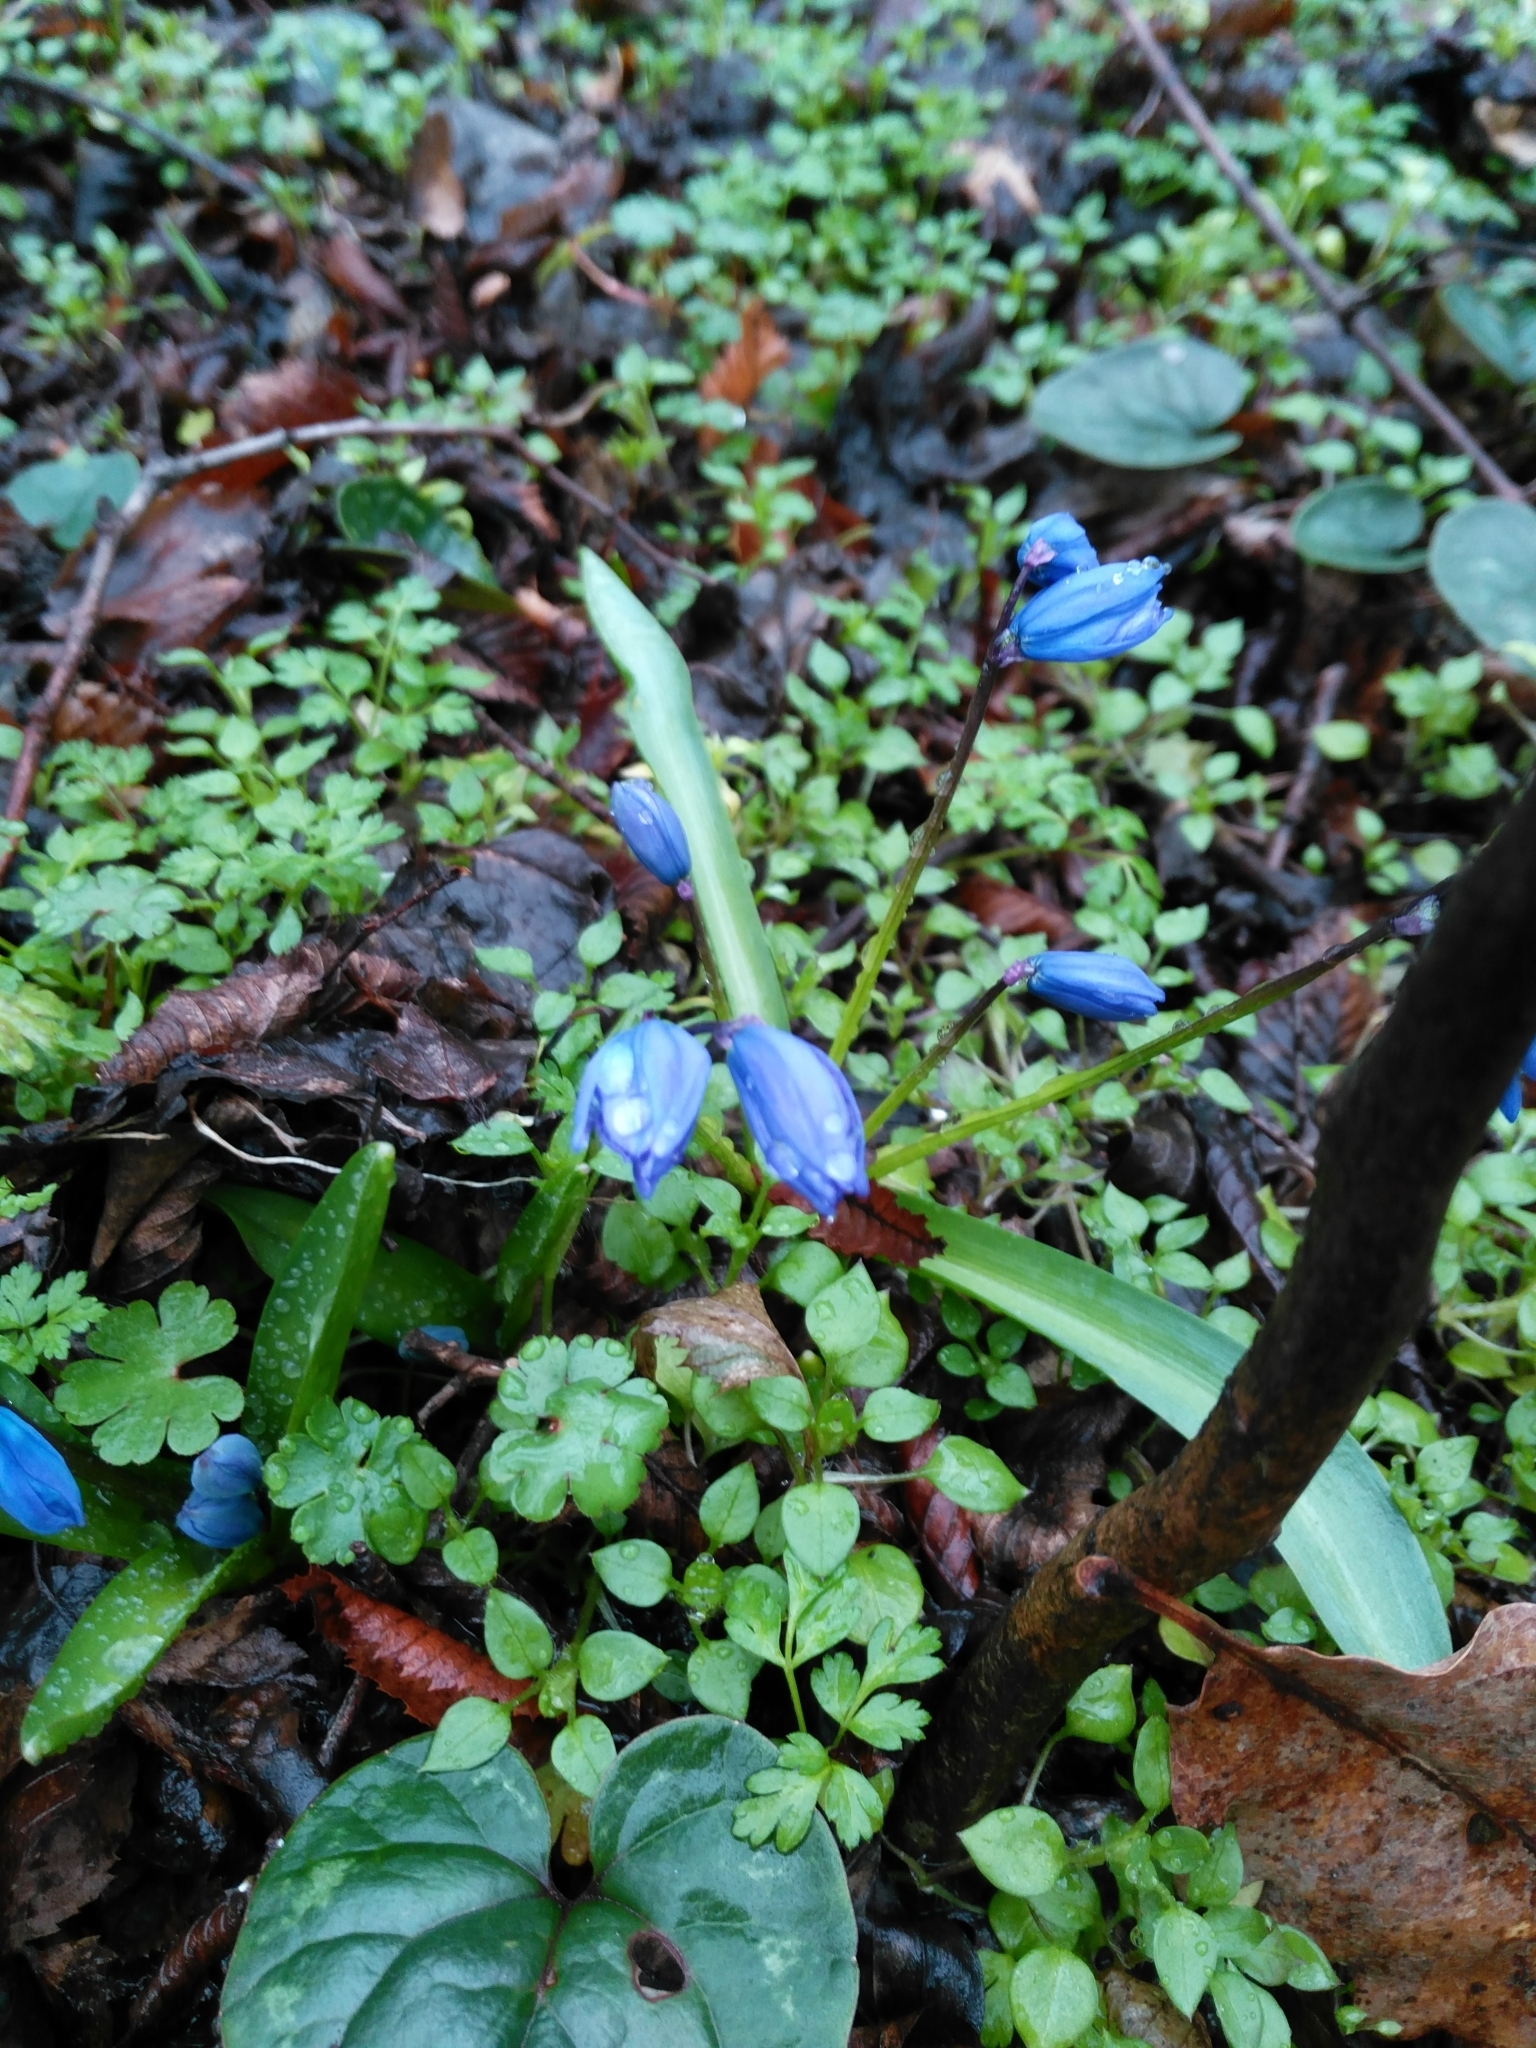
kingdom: Plantae
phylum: Tracheophyta
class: Liliopsida
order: Asparagales
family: Asparagaceae
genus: Scilla
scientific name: Scilla siberica
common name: Siberian squill
